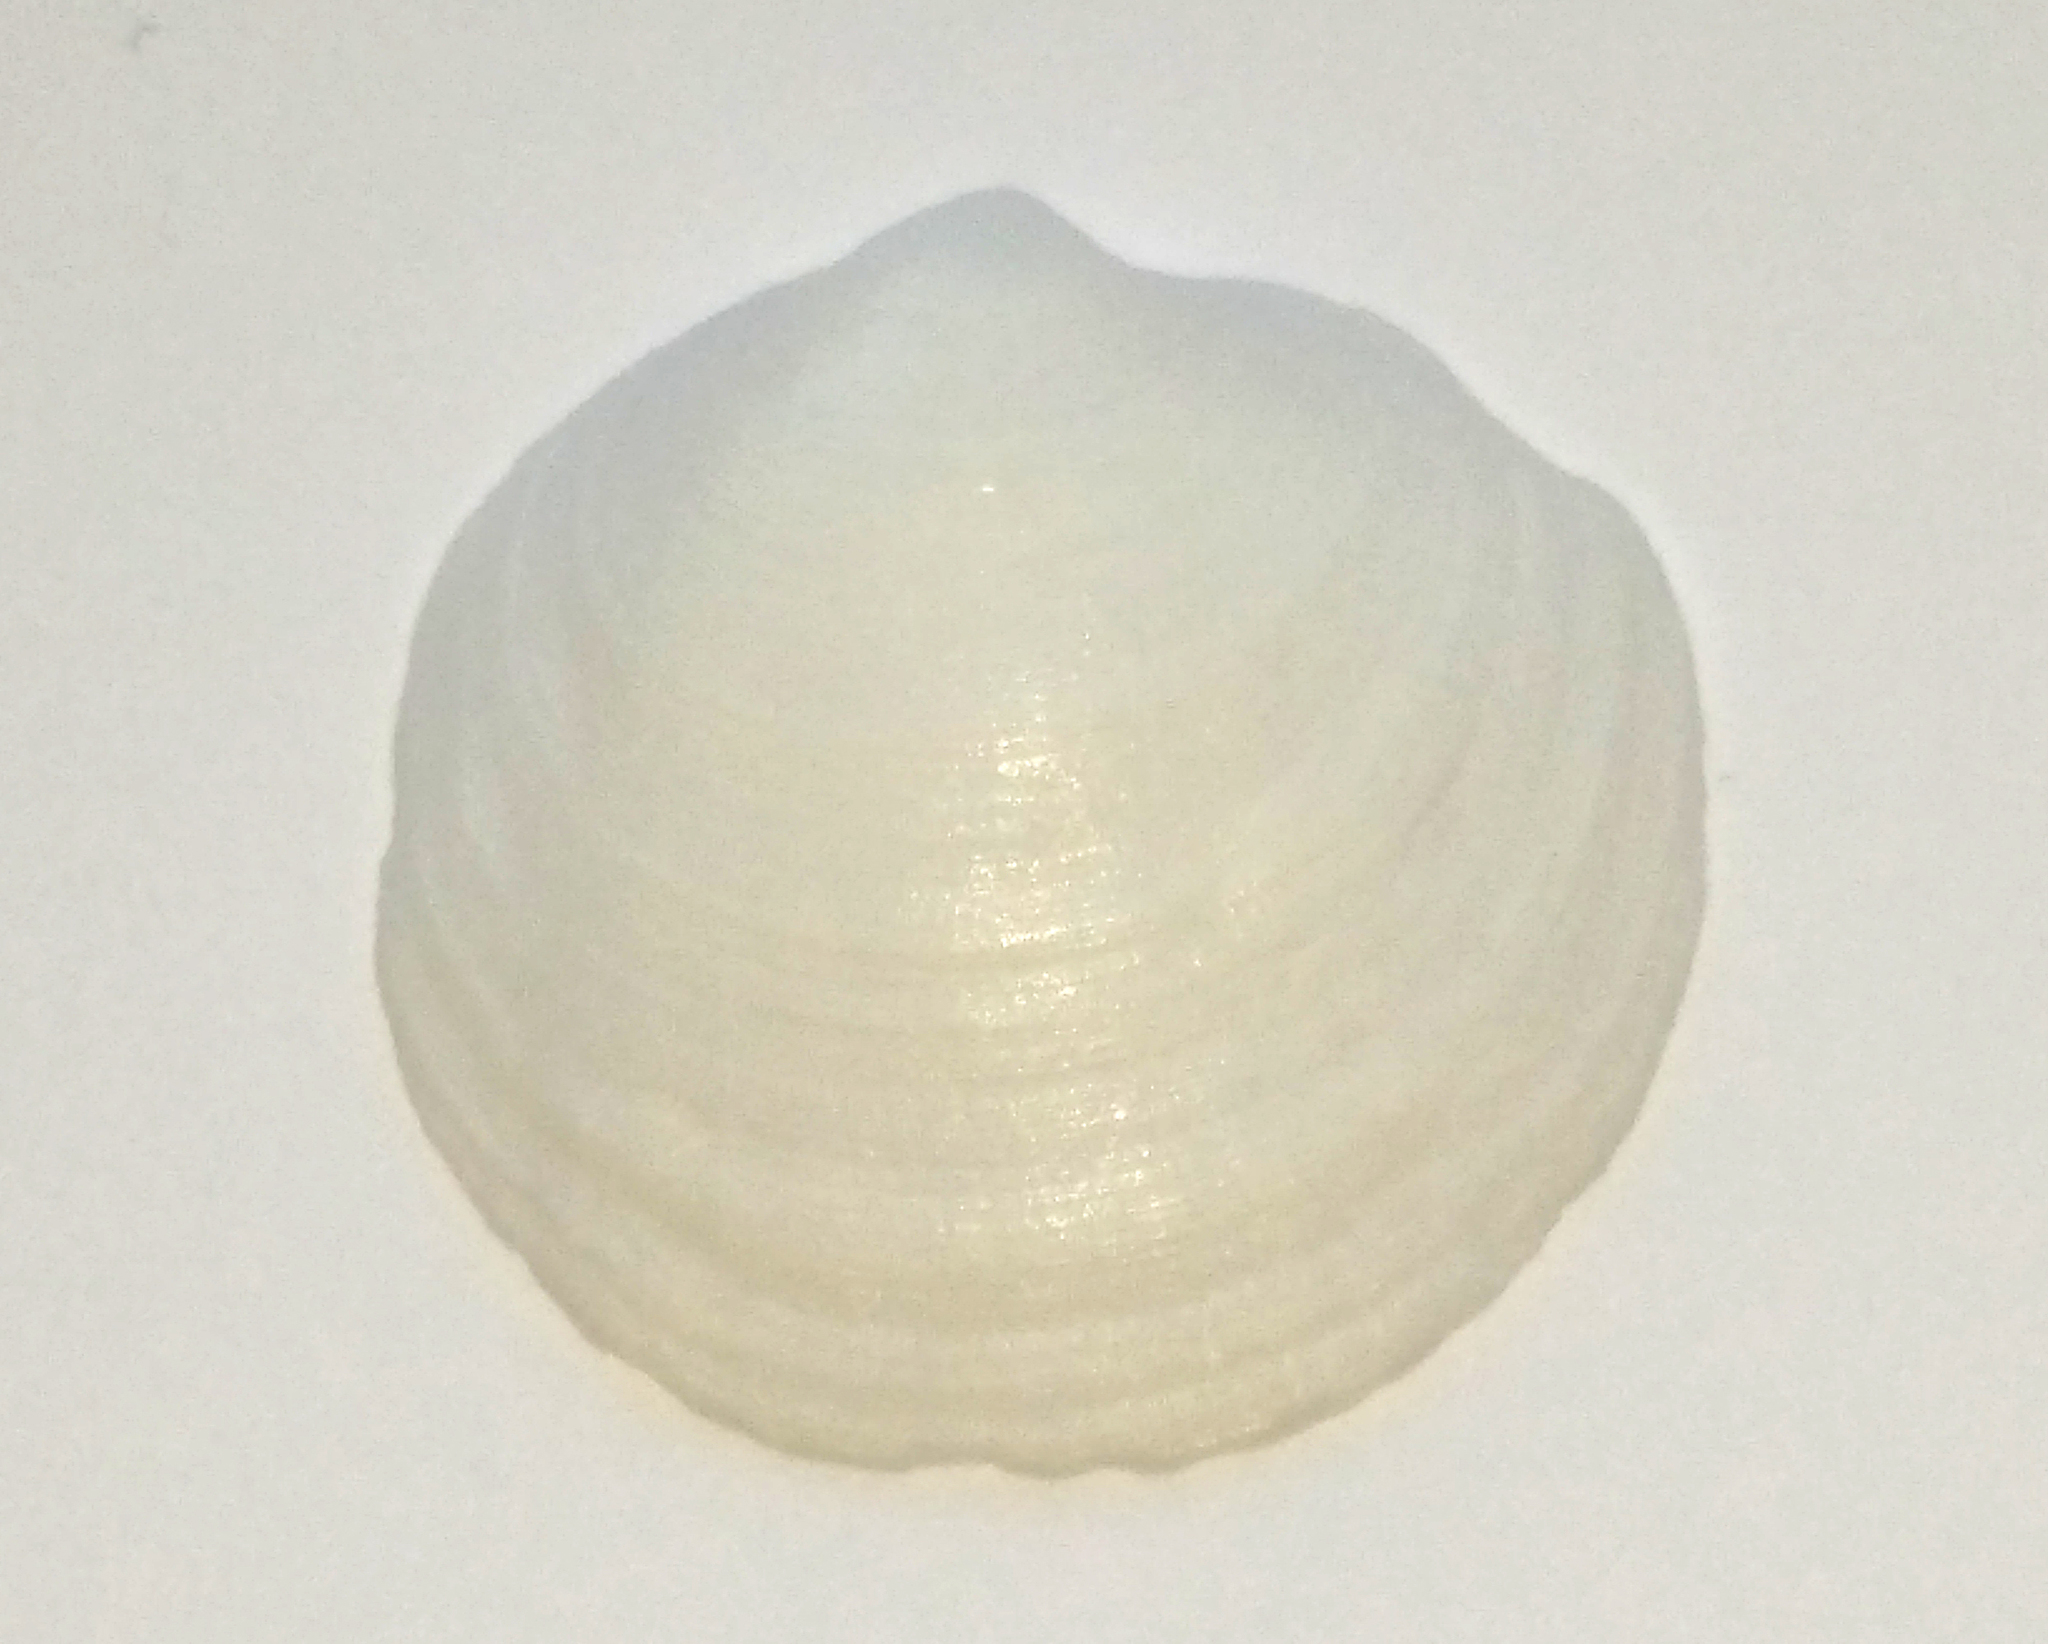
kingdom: Animalia
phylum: Mollusca
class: Bivalvia
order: Lucinida
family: Lucinidae
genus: Loripes
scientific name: Loripes orbiculatus
